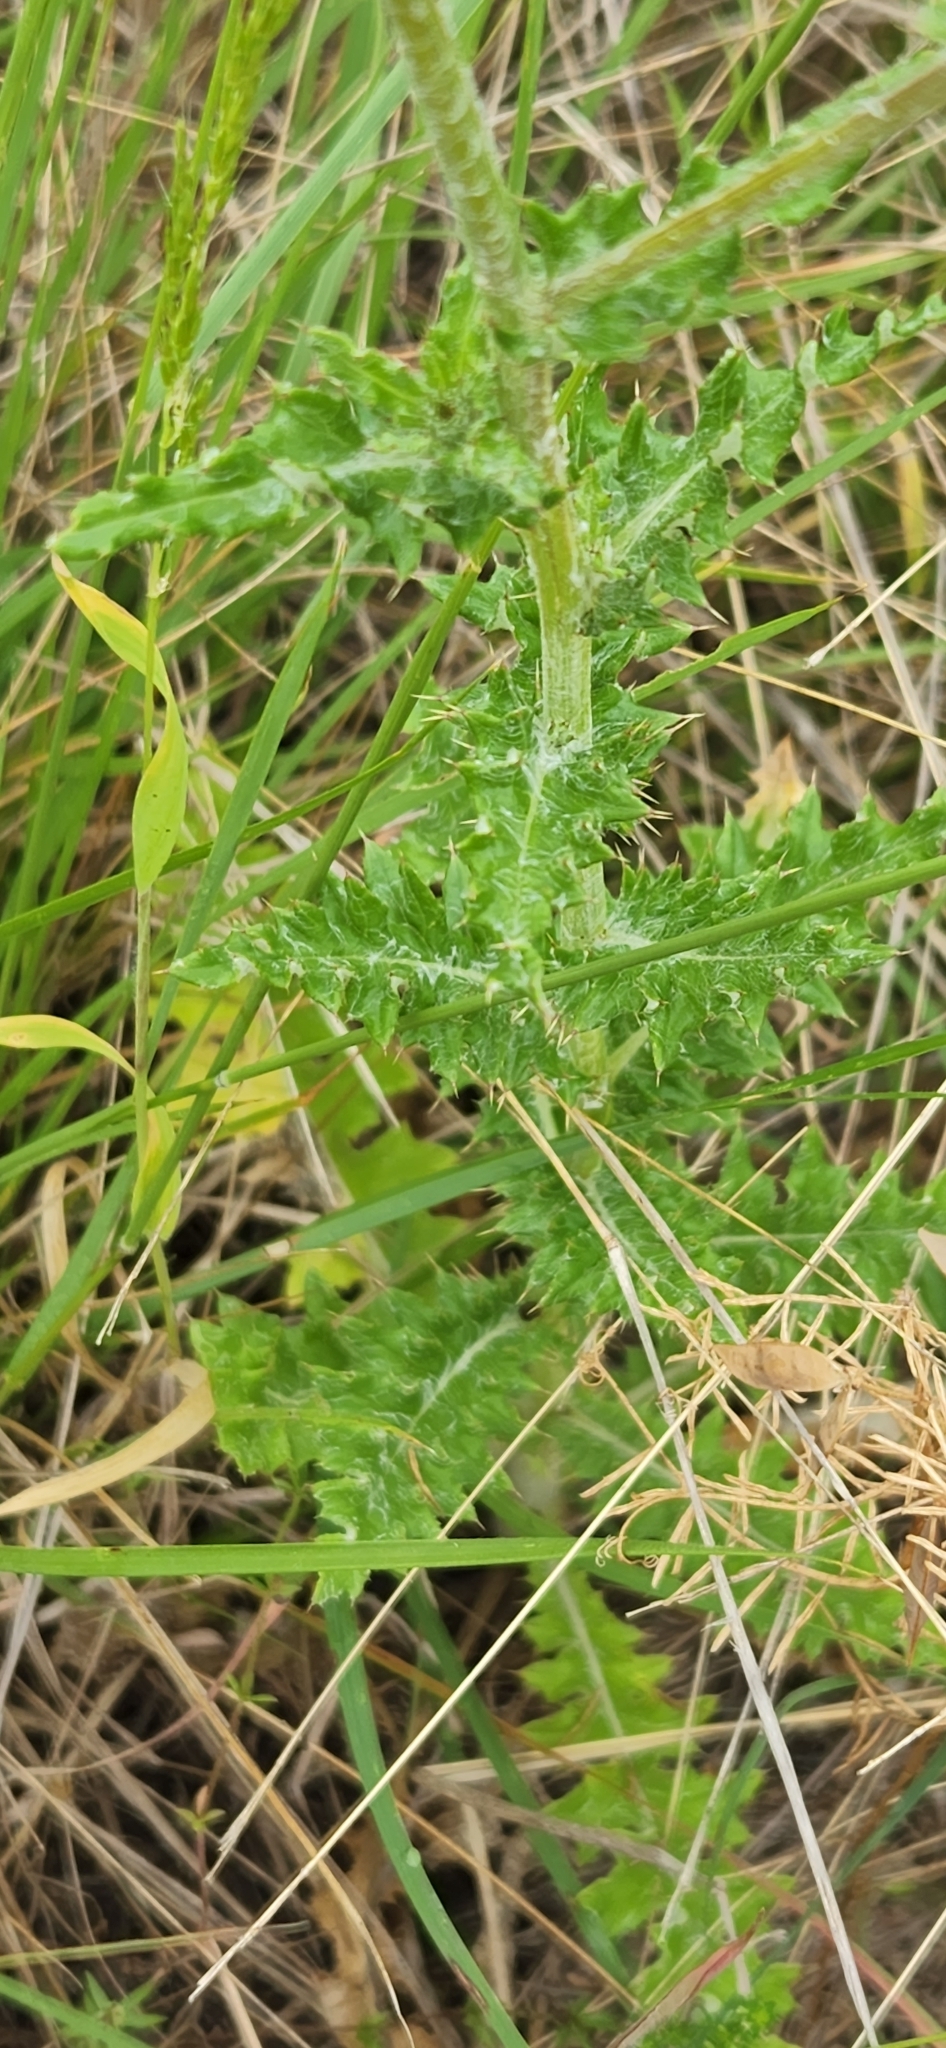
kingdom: Plantae
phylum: Tracheophyta
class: Magnoliopsida
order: Asterales
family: Asteraceae
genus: Cirsium
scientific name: Cirsium texanum
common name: Texas purple thistle
